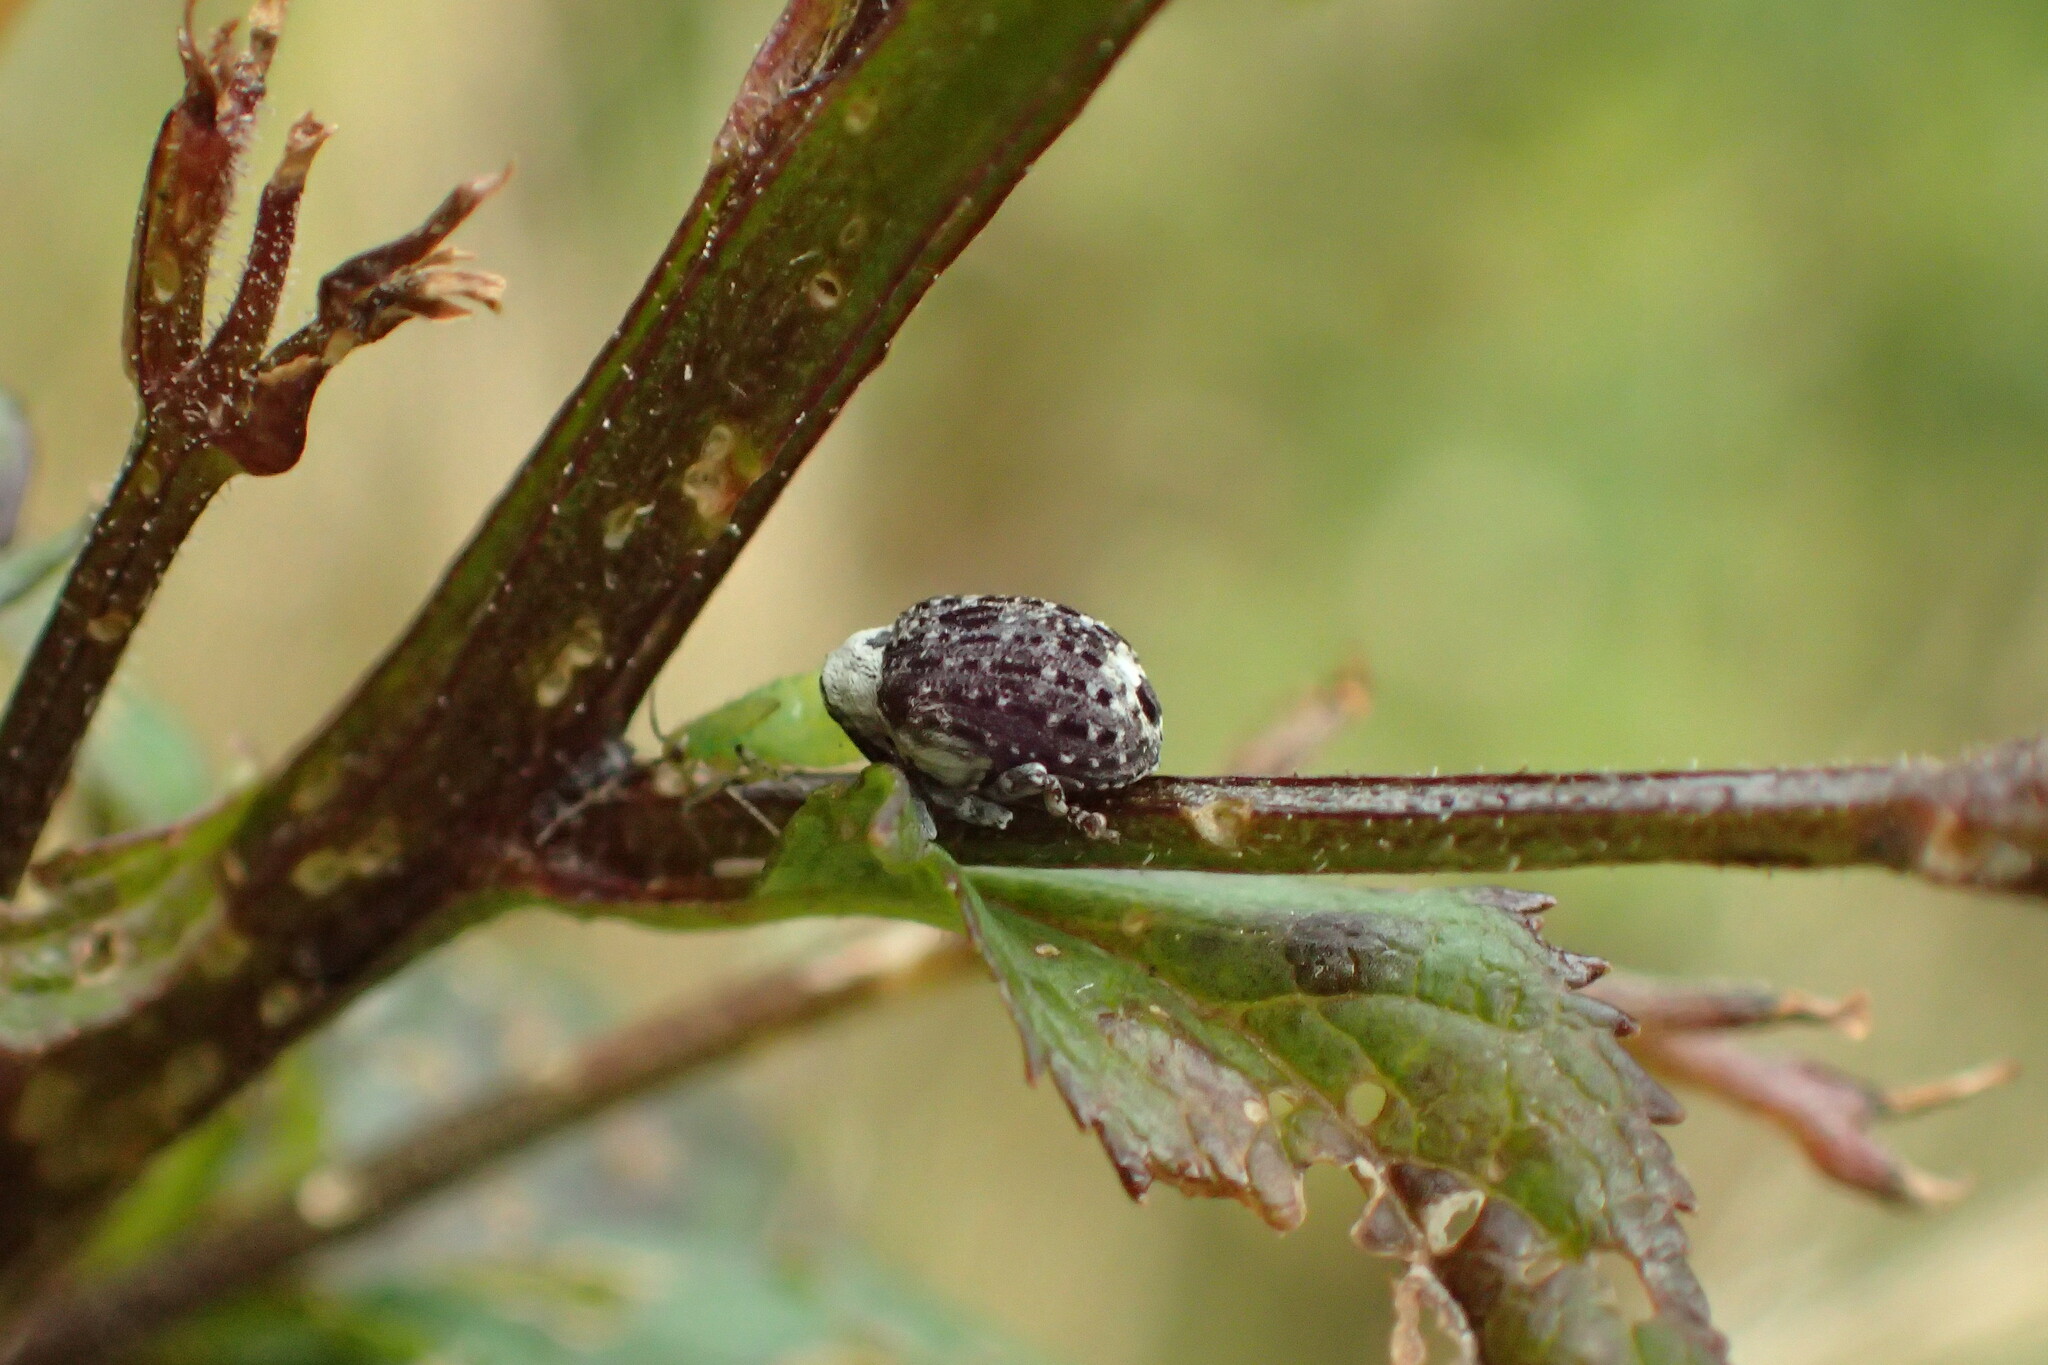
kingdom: Animalia
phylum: Arthropoda
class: Insecta
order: Coleoptera
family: Curculionidae
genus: Cionus
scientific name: Cionus scrophulariae
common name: Common figwort weevil
